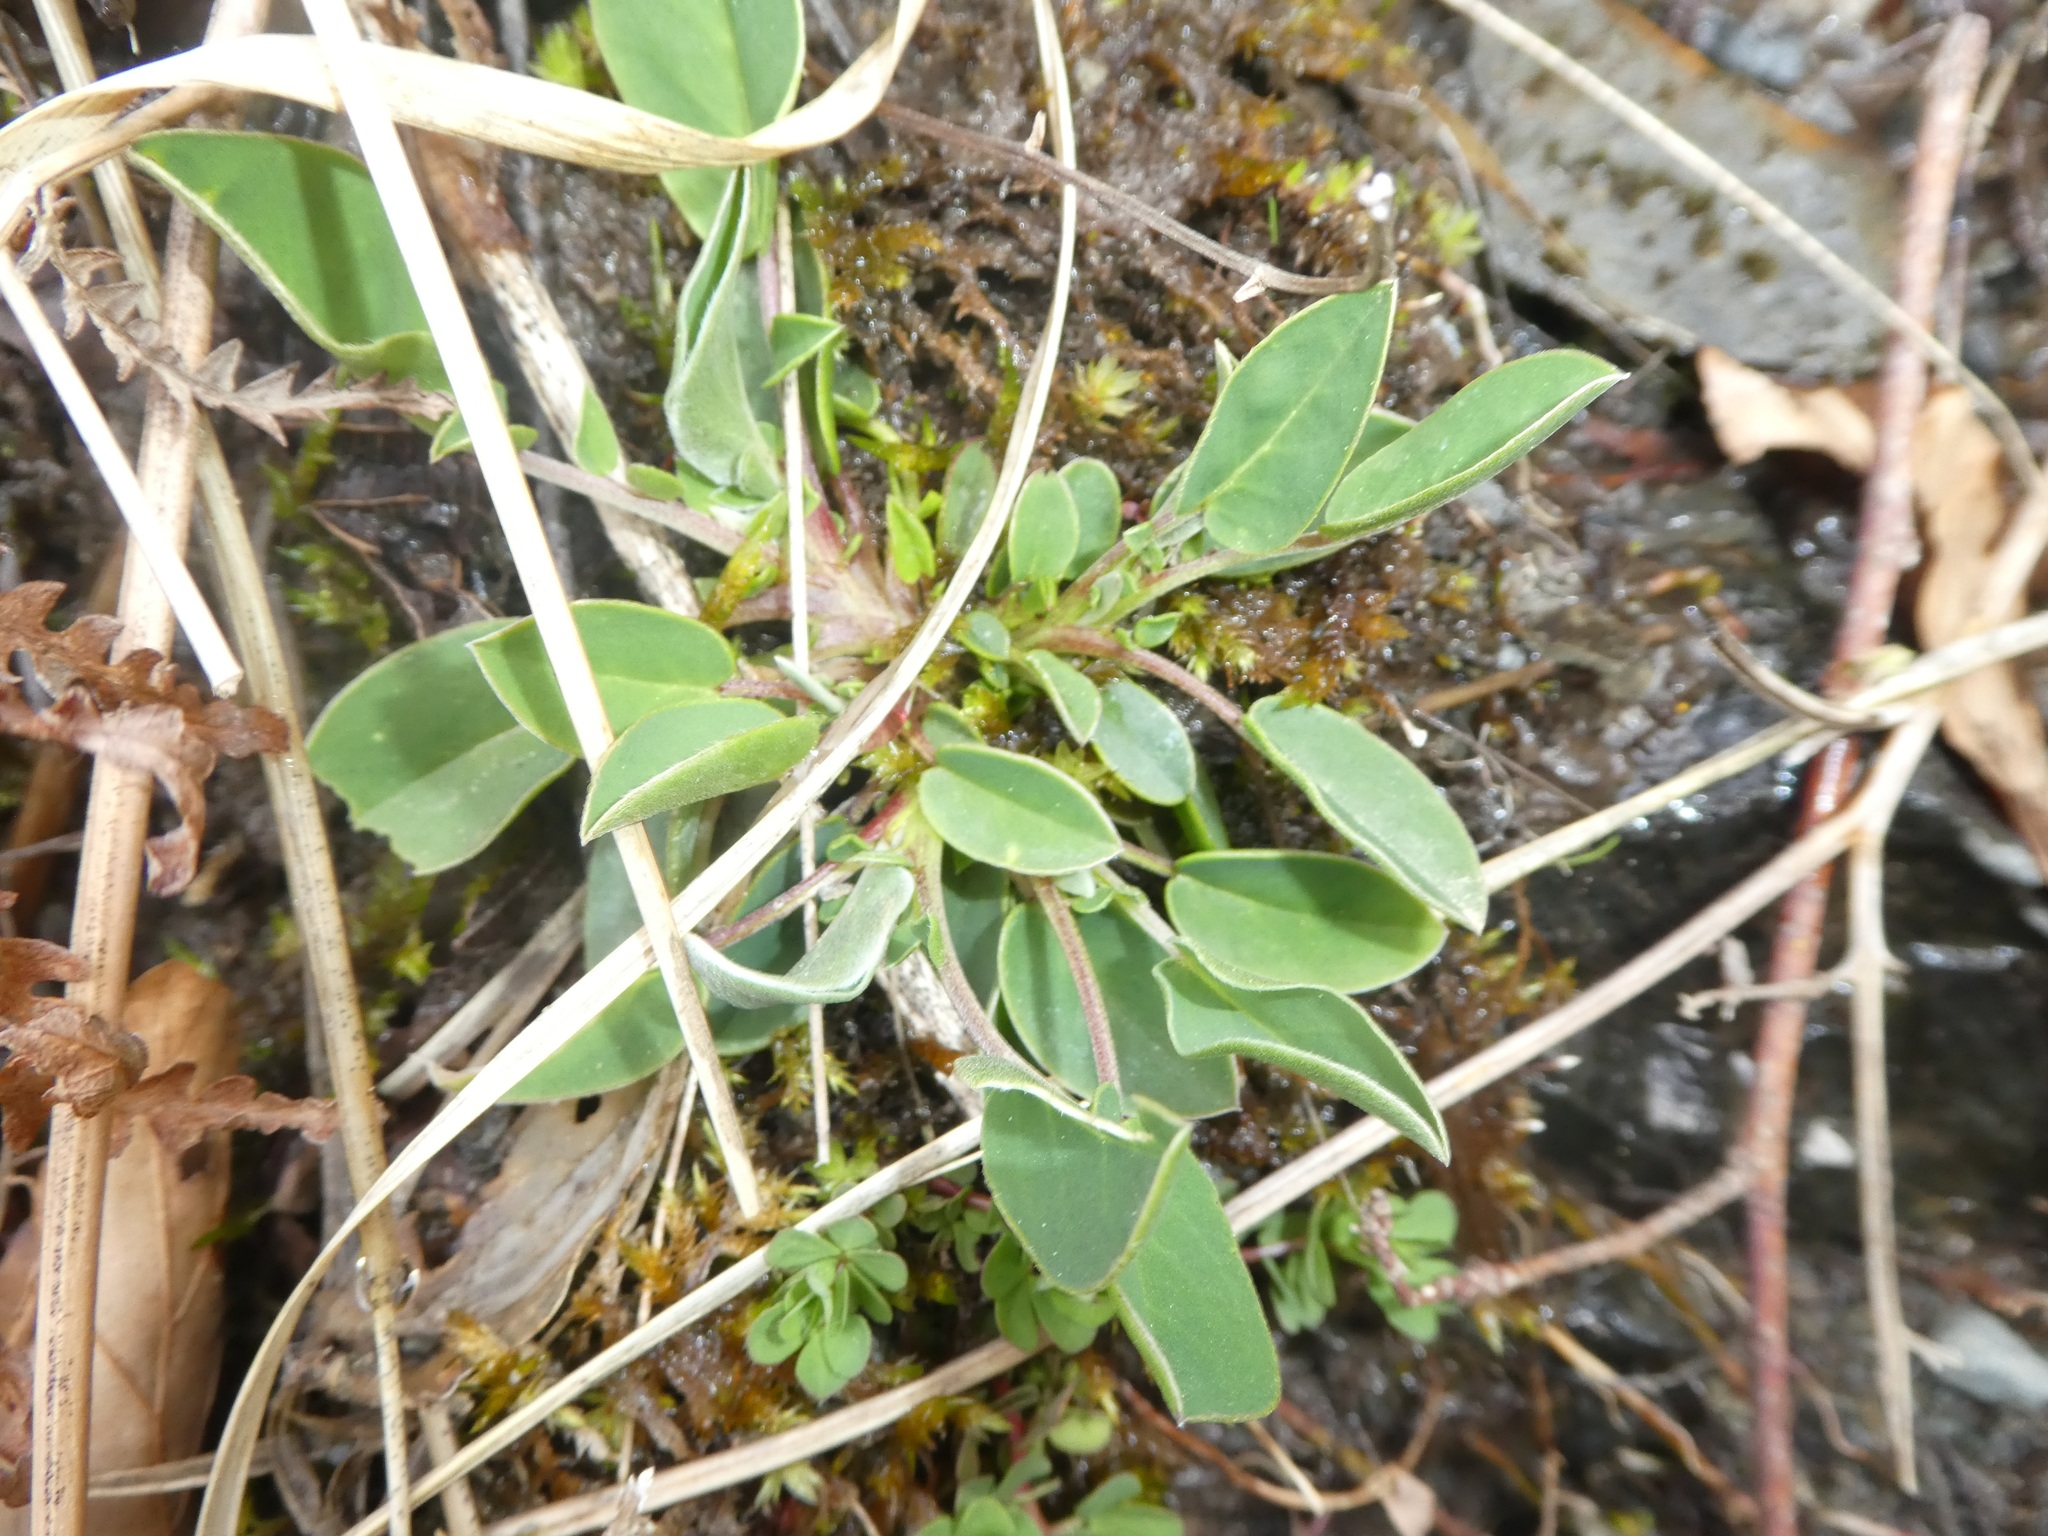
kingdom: Plantae
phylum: Tracheophyta
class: Magnoliopsida
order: Fabales
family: Fabaceae
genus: Anthyllis
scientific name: Anthyllis vulneraria
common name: Kidney vetch
